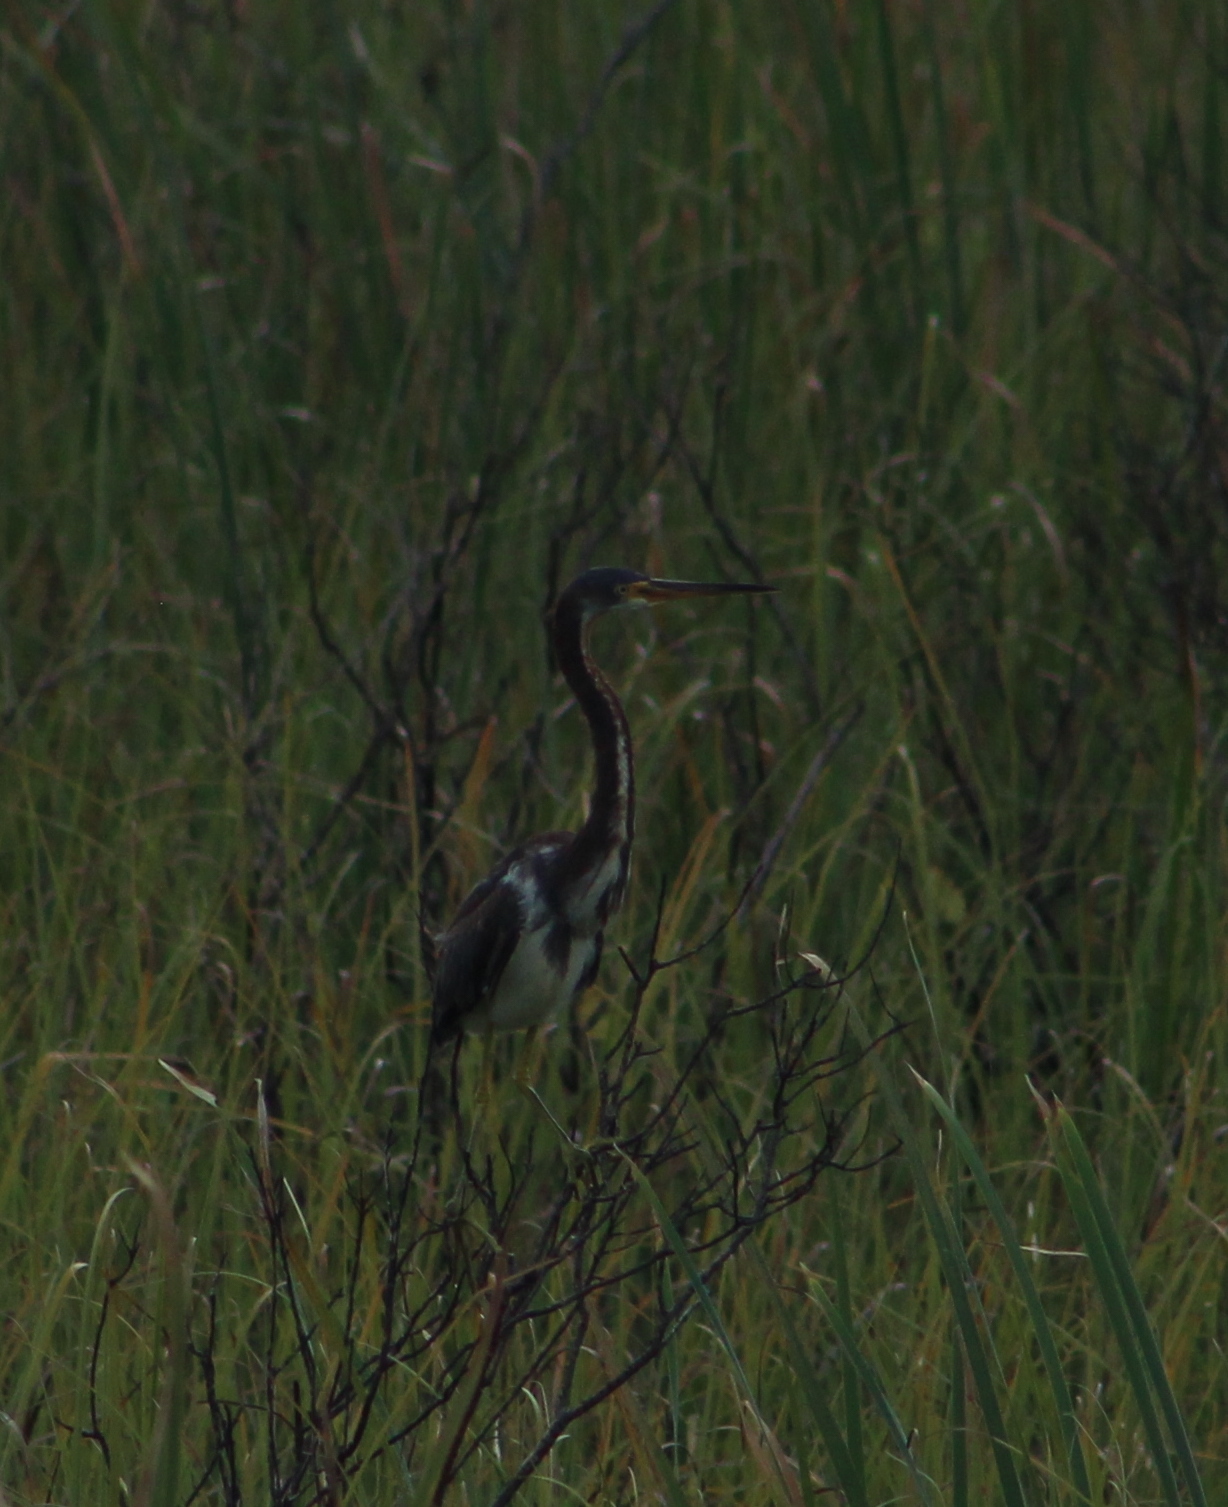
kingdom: Animalia
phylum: Chordata
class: Aves
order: Pelecaniformes
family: Ardeidae
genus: Egretta
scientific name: Egretta tricolor
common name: Tricolored heron
